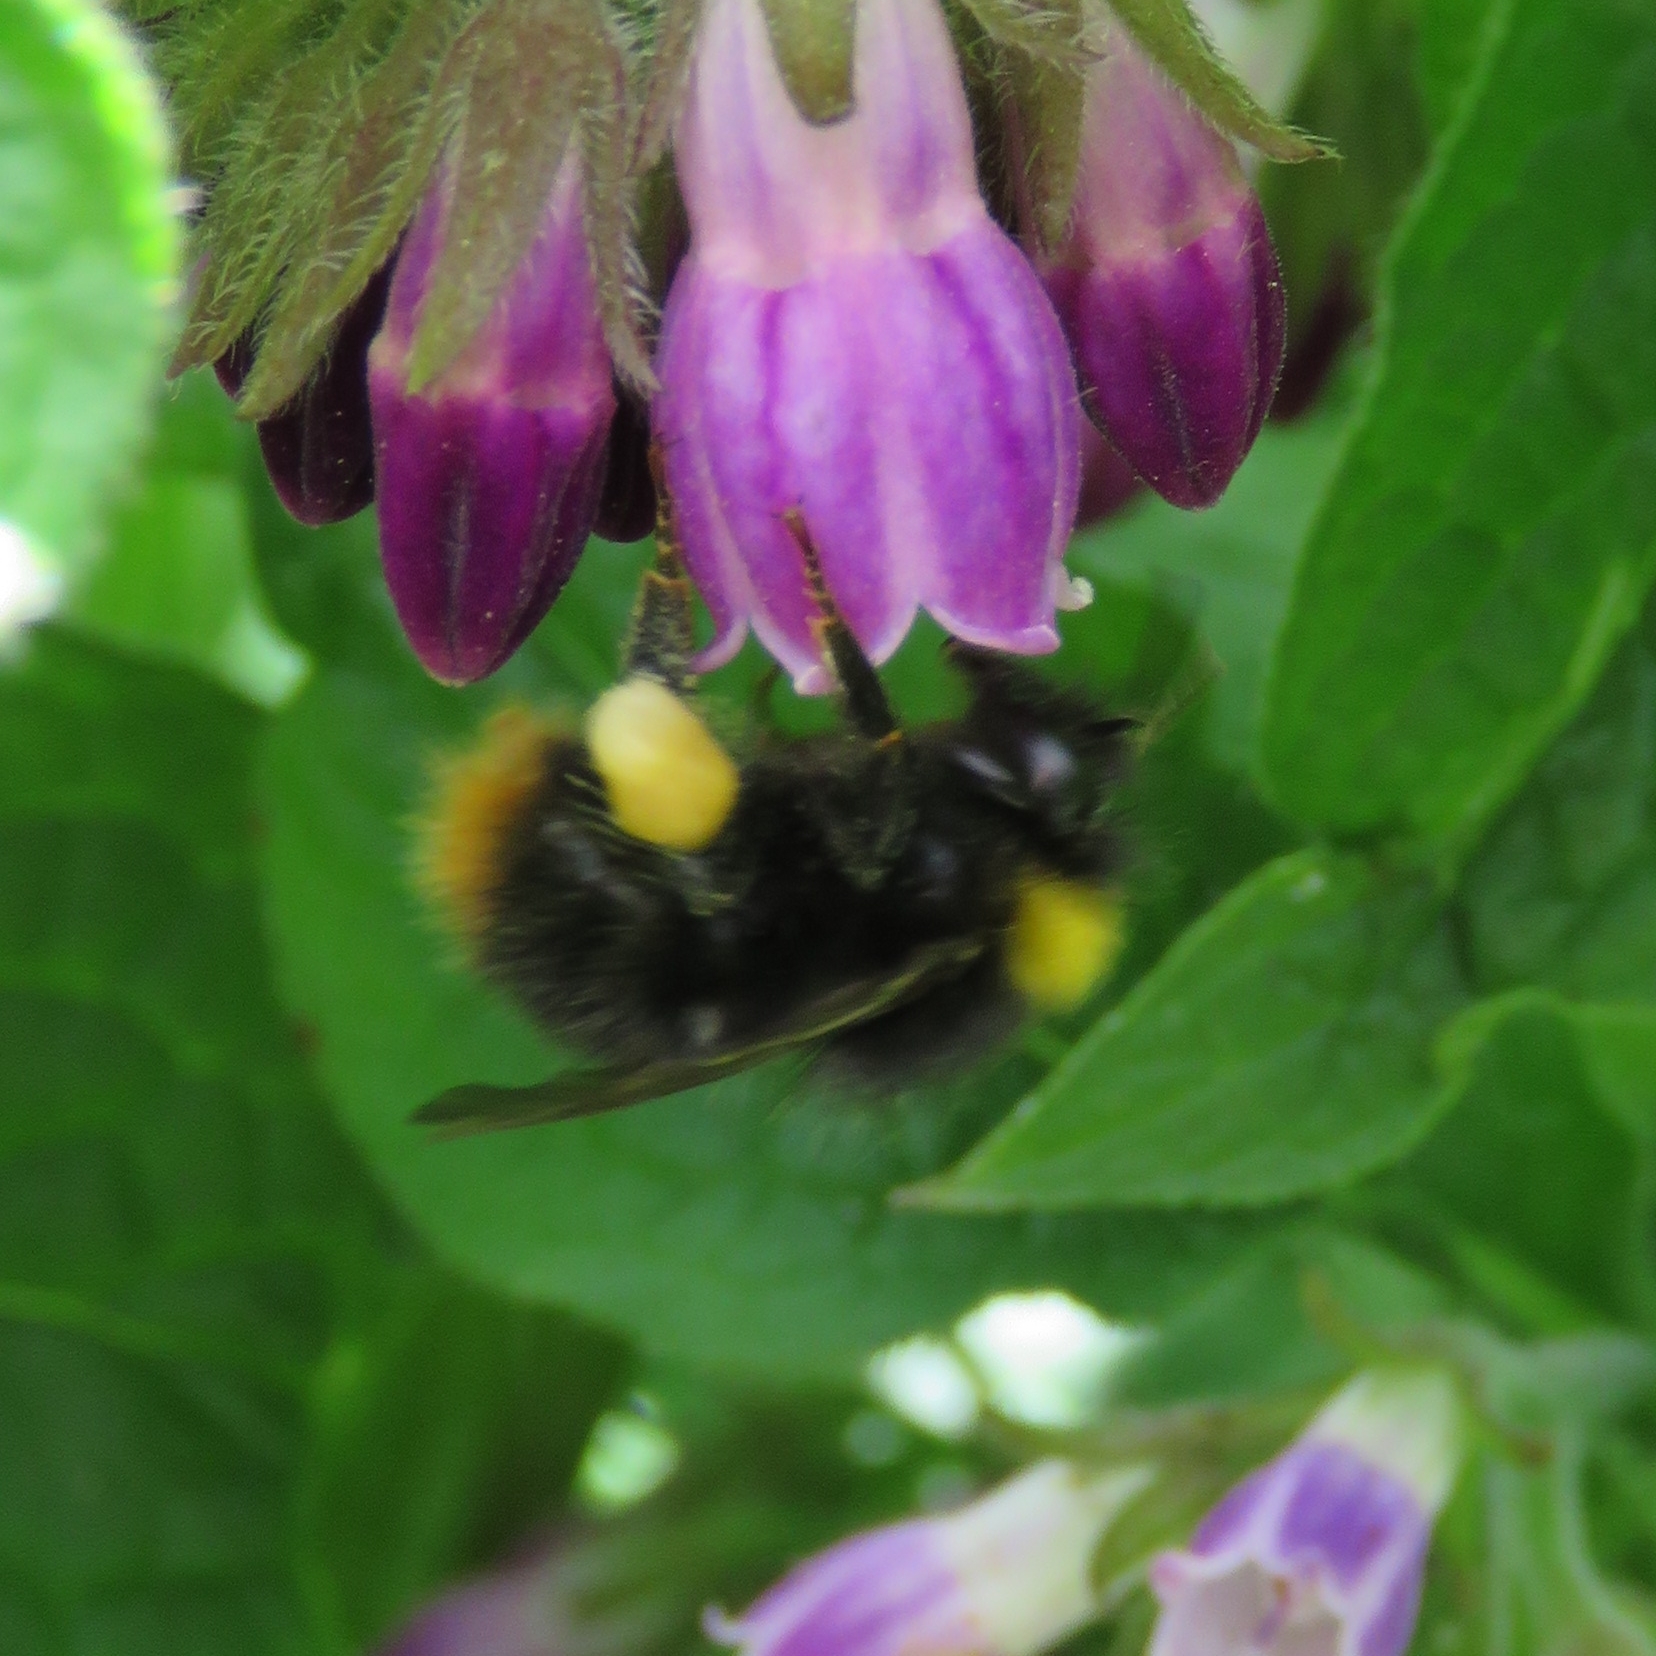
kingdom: Animalia
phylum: Arthropoda
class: Insecta
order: Hymenoptera
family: Apidae
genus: Bombus
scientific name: Bombus pratorum
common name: Early humble-bee
